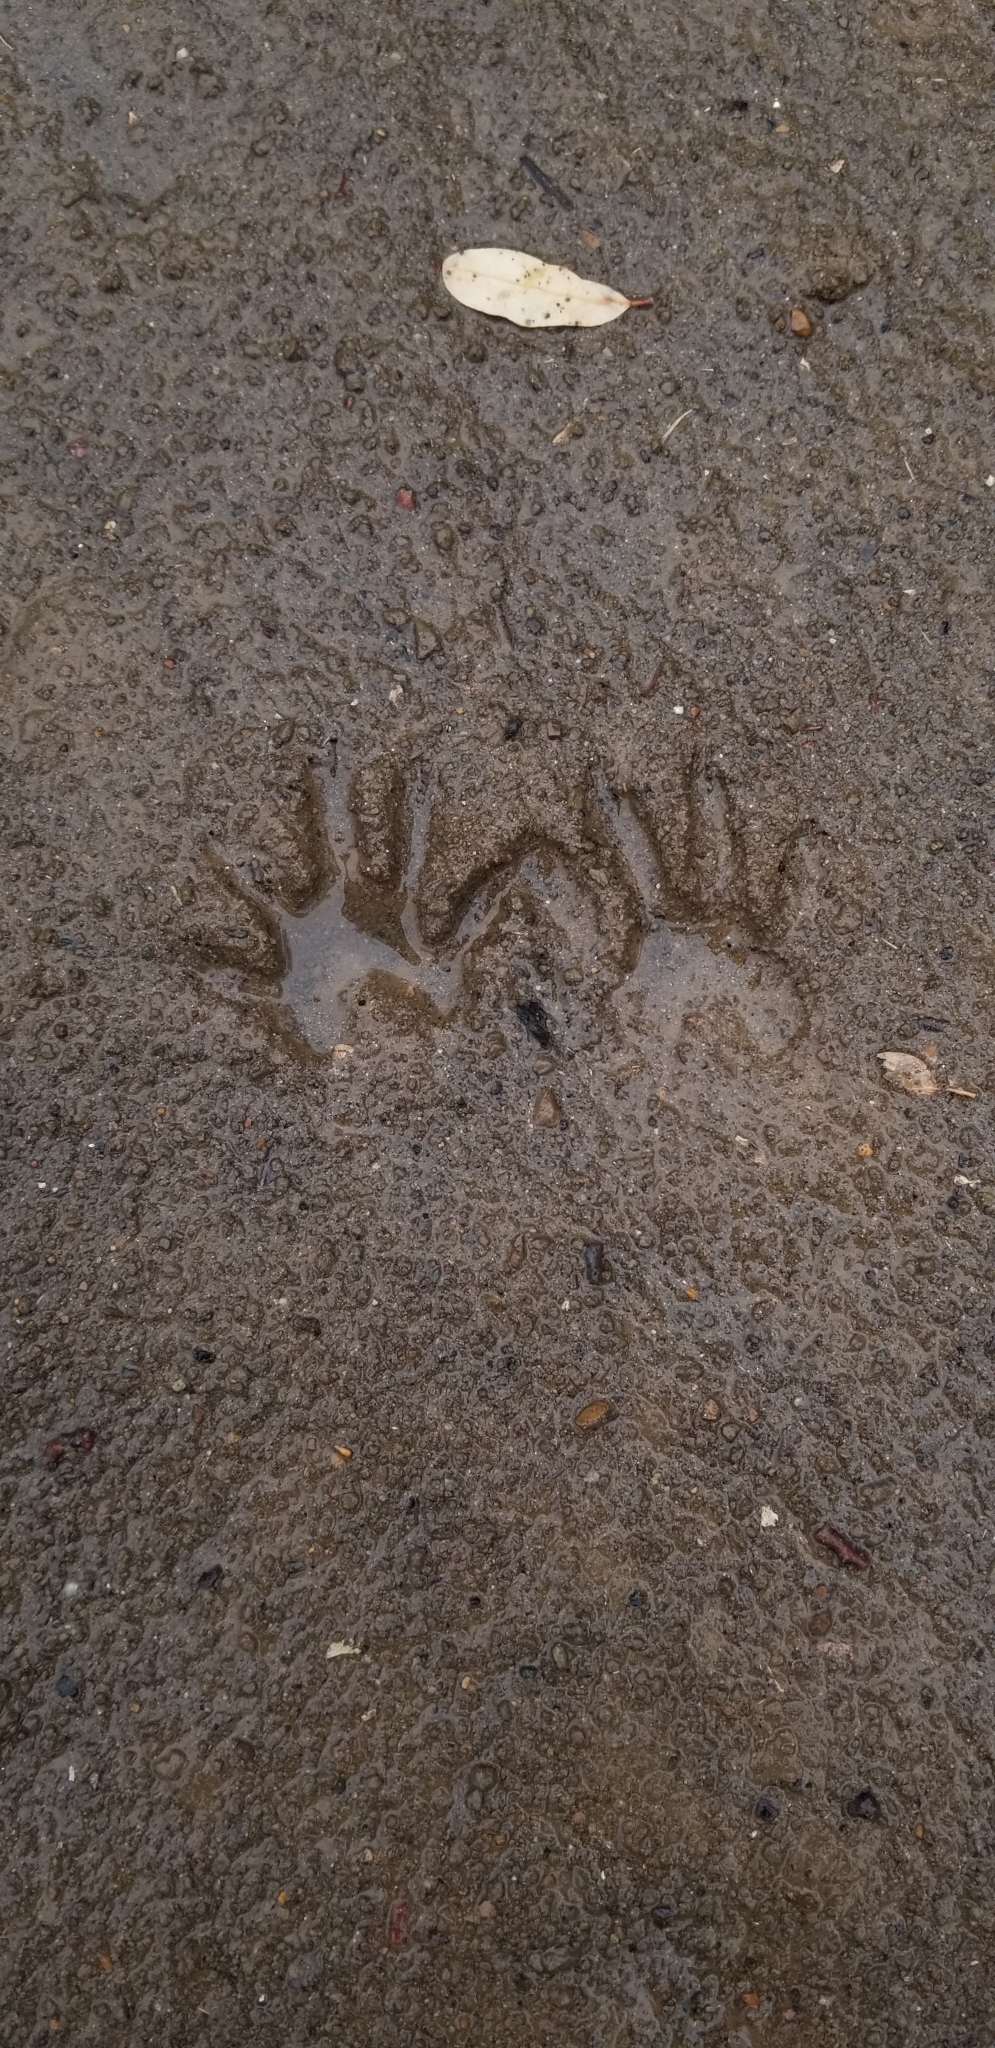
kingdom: Animalia
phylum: Chordata
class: Mammalia
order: Carnivora
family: Procyonidae
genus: Procyon
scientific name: Procyon lotor
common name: Raccoon
